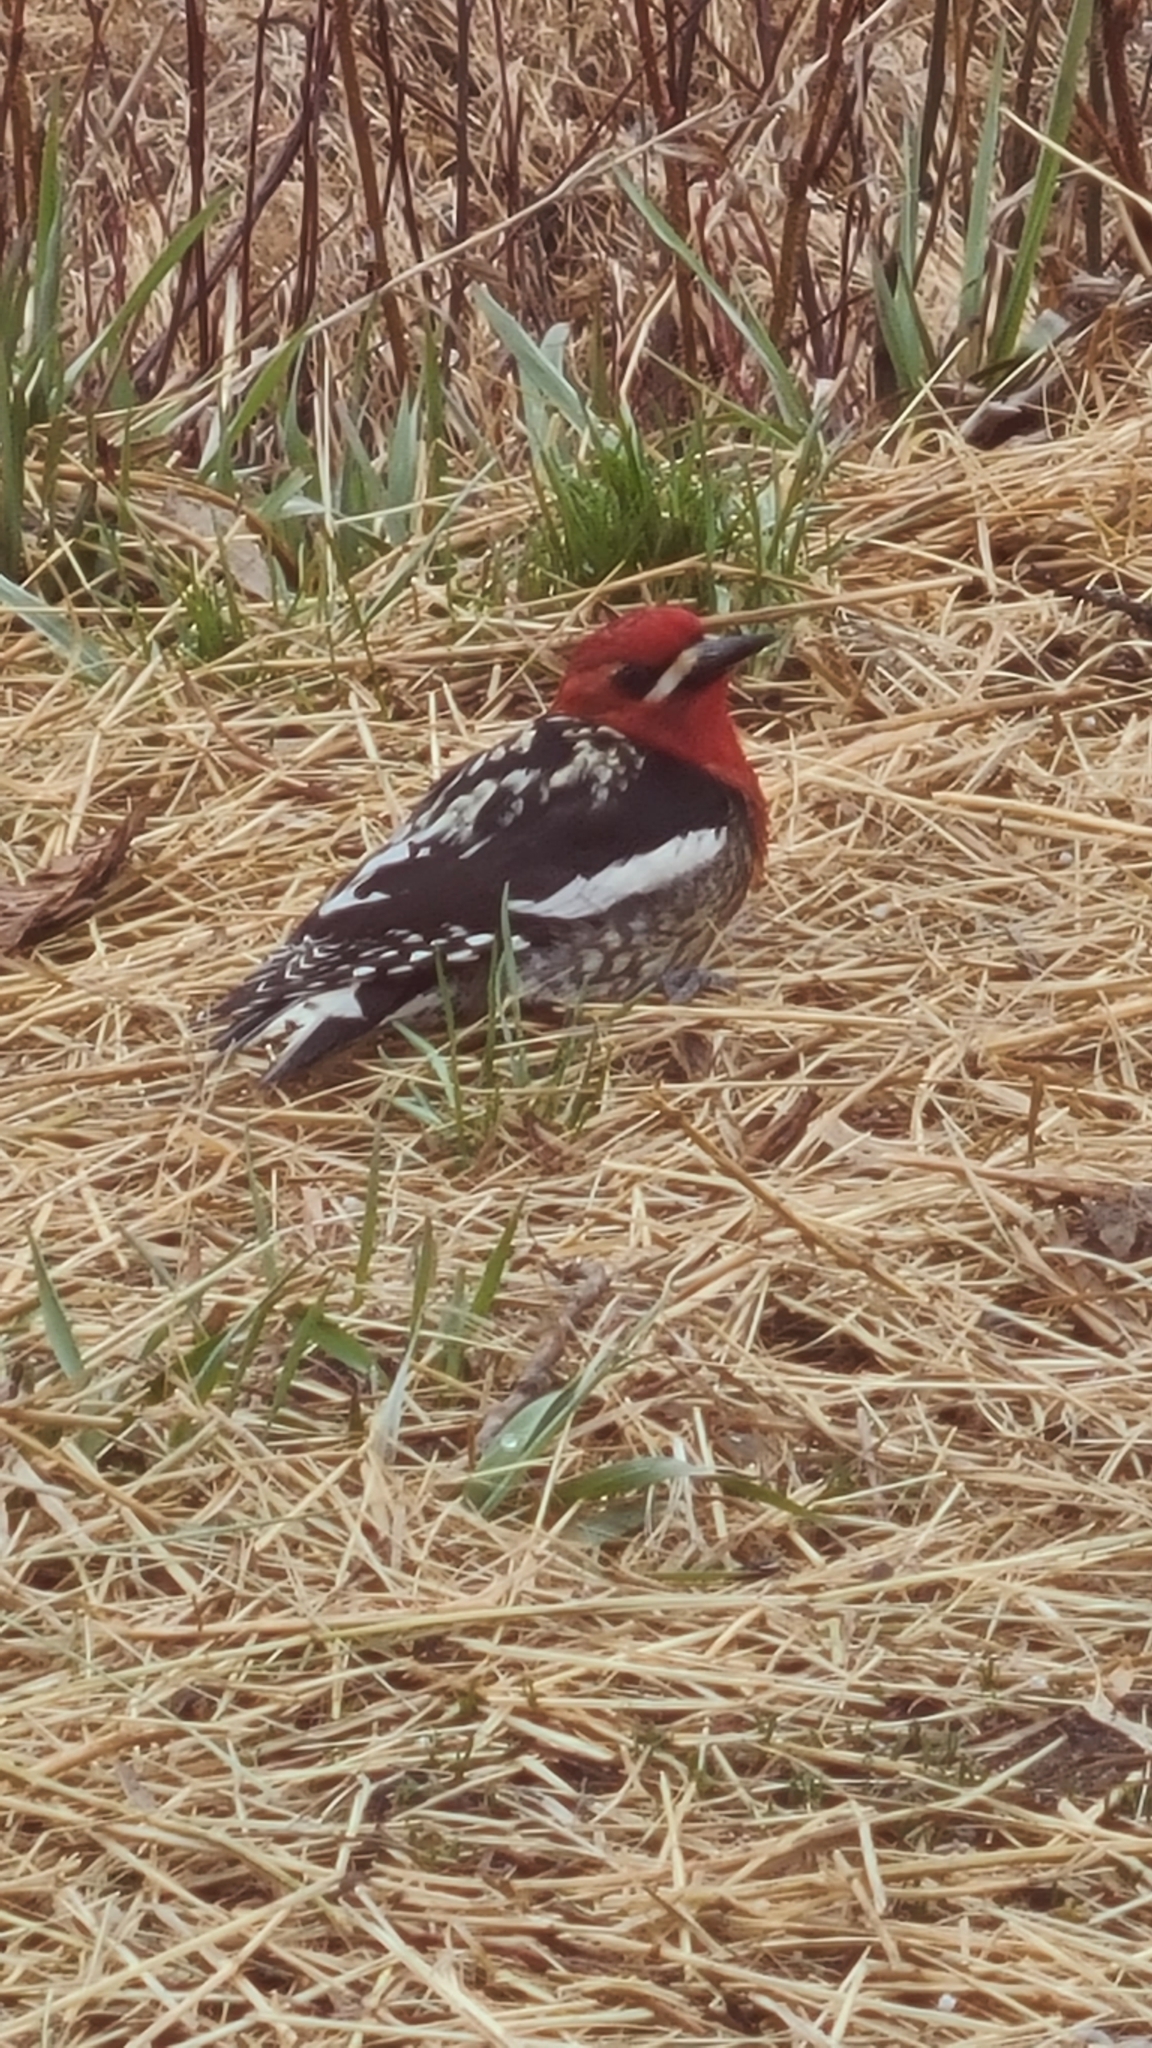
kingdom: Animalia
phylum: Chordata
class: Aves
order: Piciformes
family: Picidae
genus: Sphyrapicus
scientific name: Sphyrapicus ruber
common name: Red-breasted sapsucker
